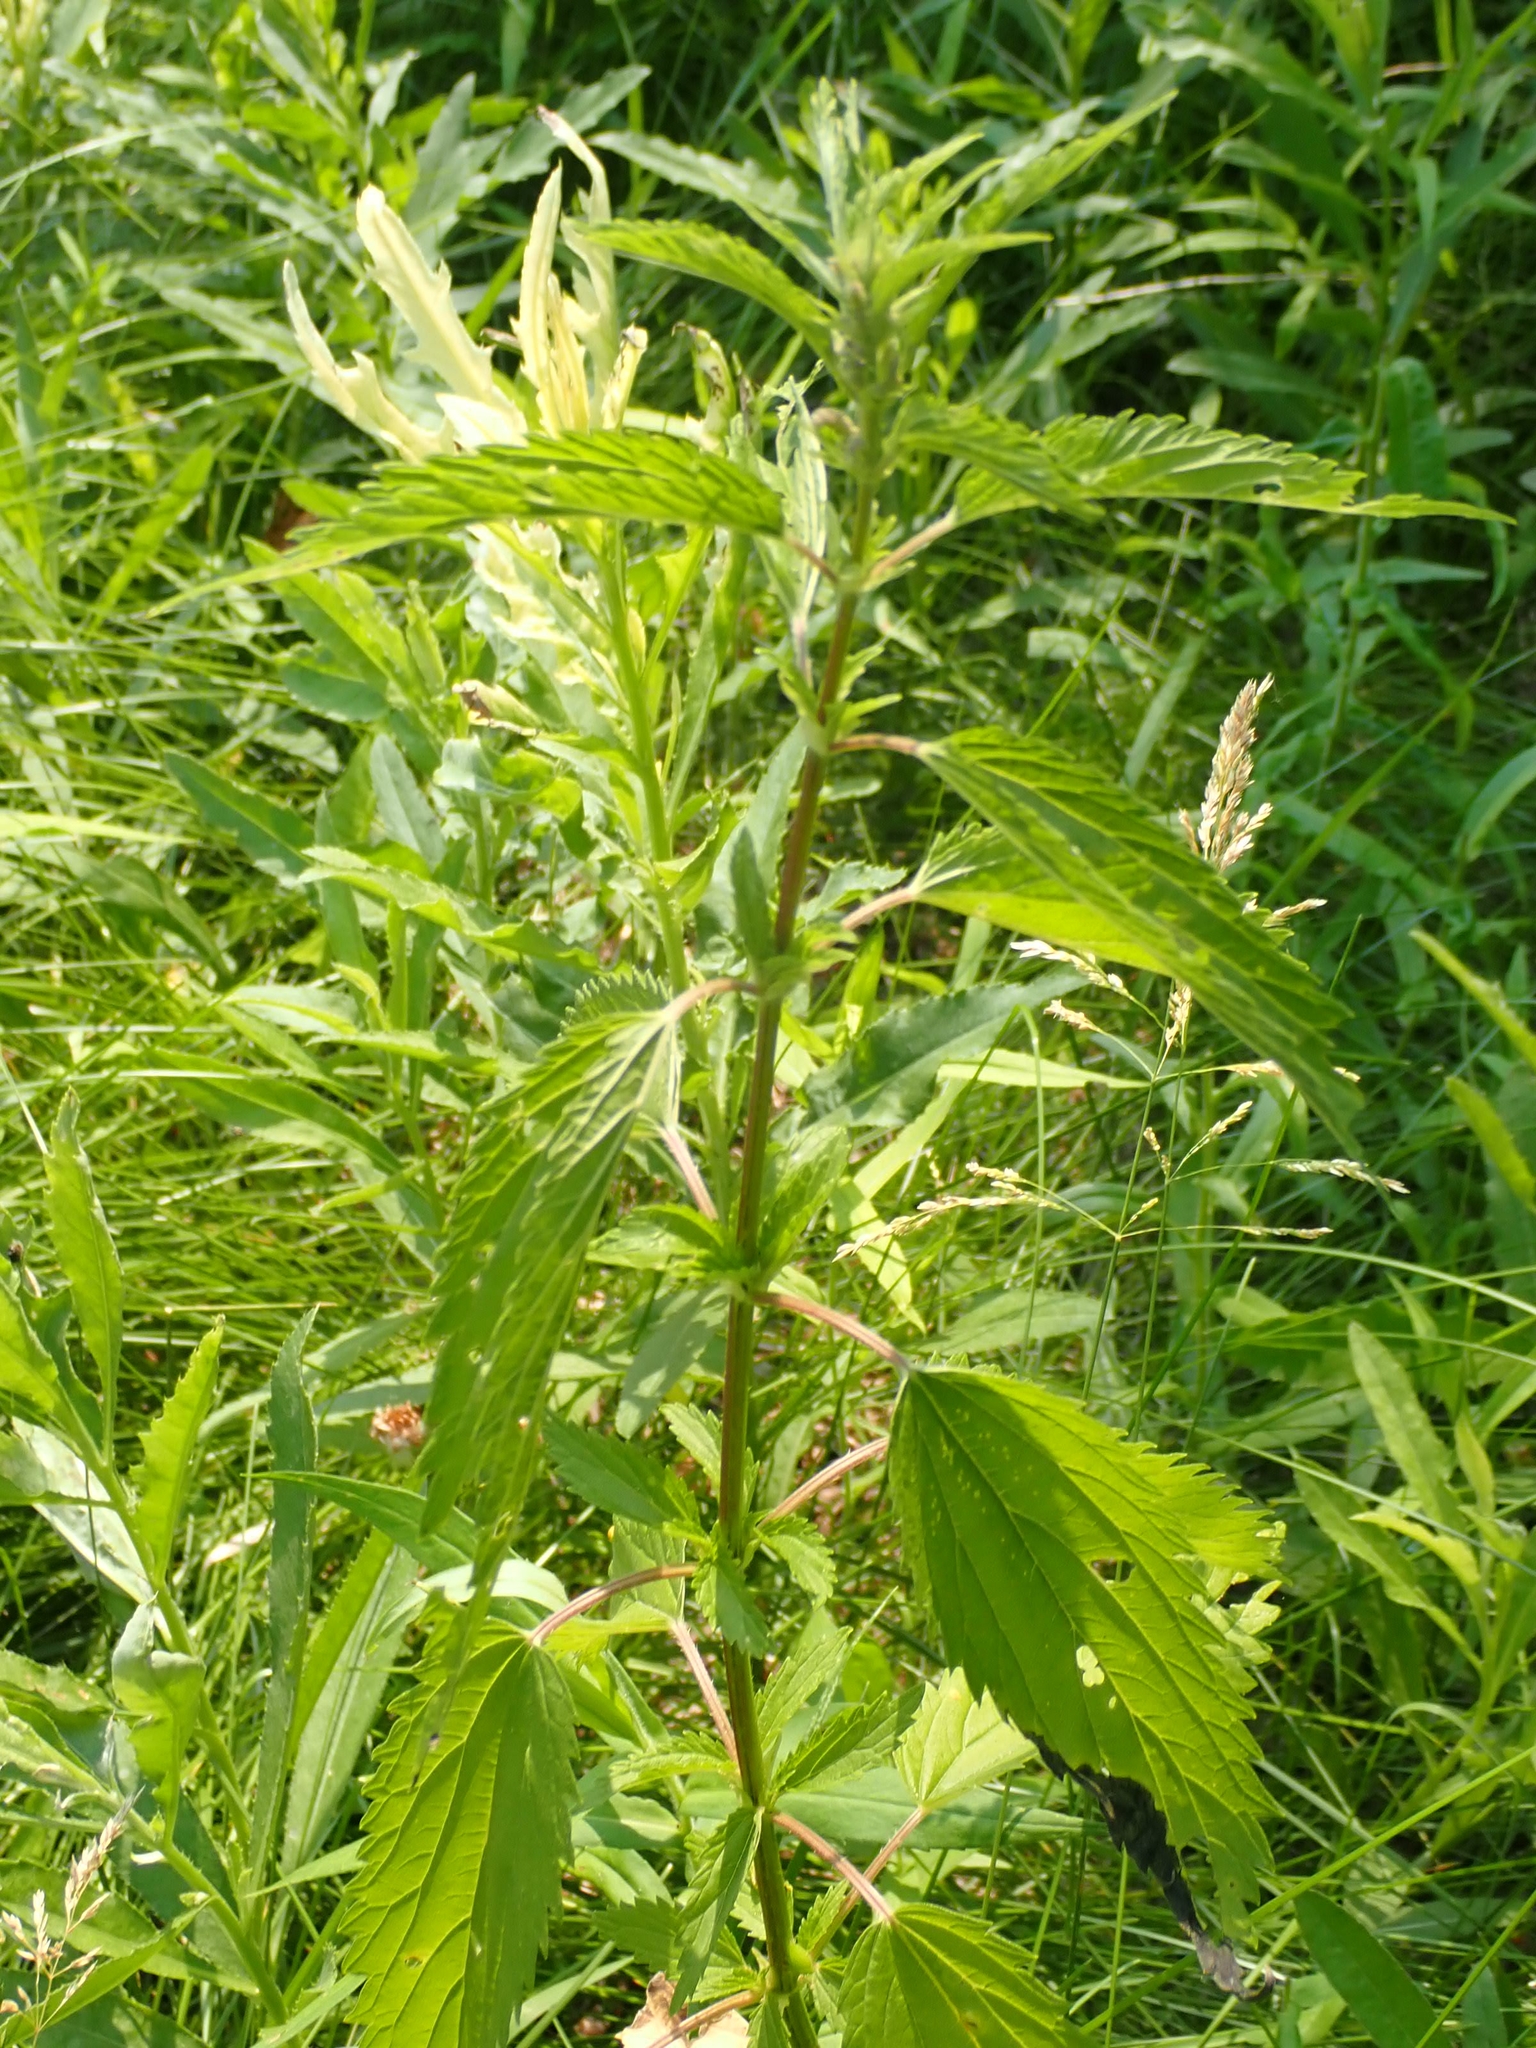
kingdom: Plantae
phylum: Tracheophyta
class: Magnoliopsida
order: Rosales
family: Urticaceae
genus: Urtica
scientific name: Urtica gracilis
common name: Slender stinging nettle
